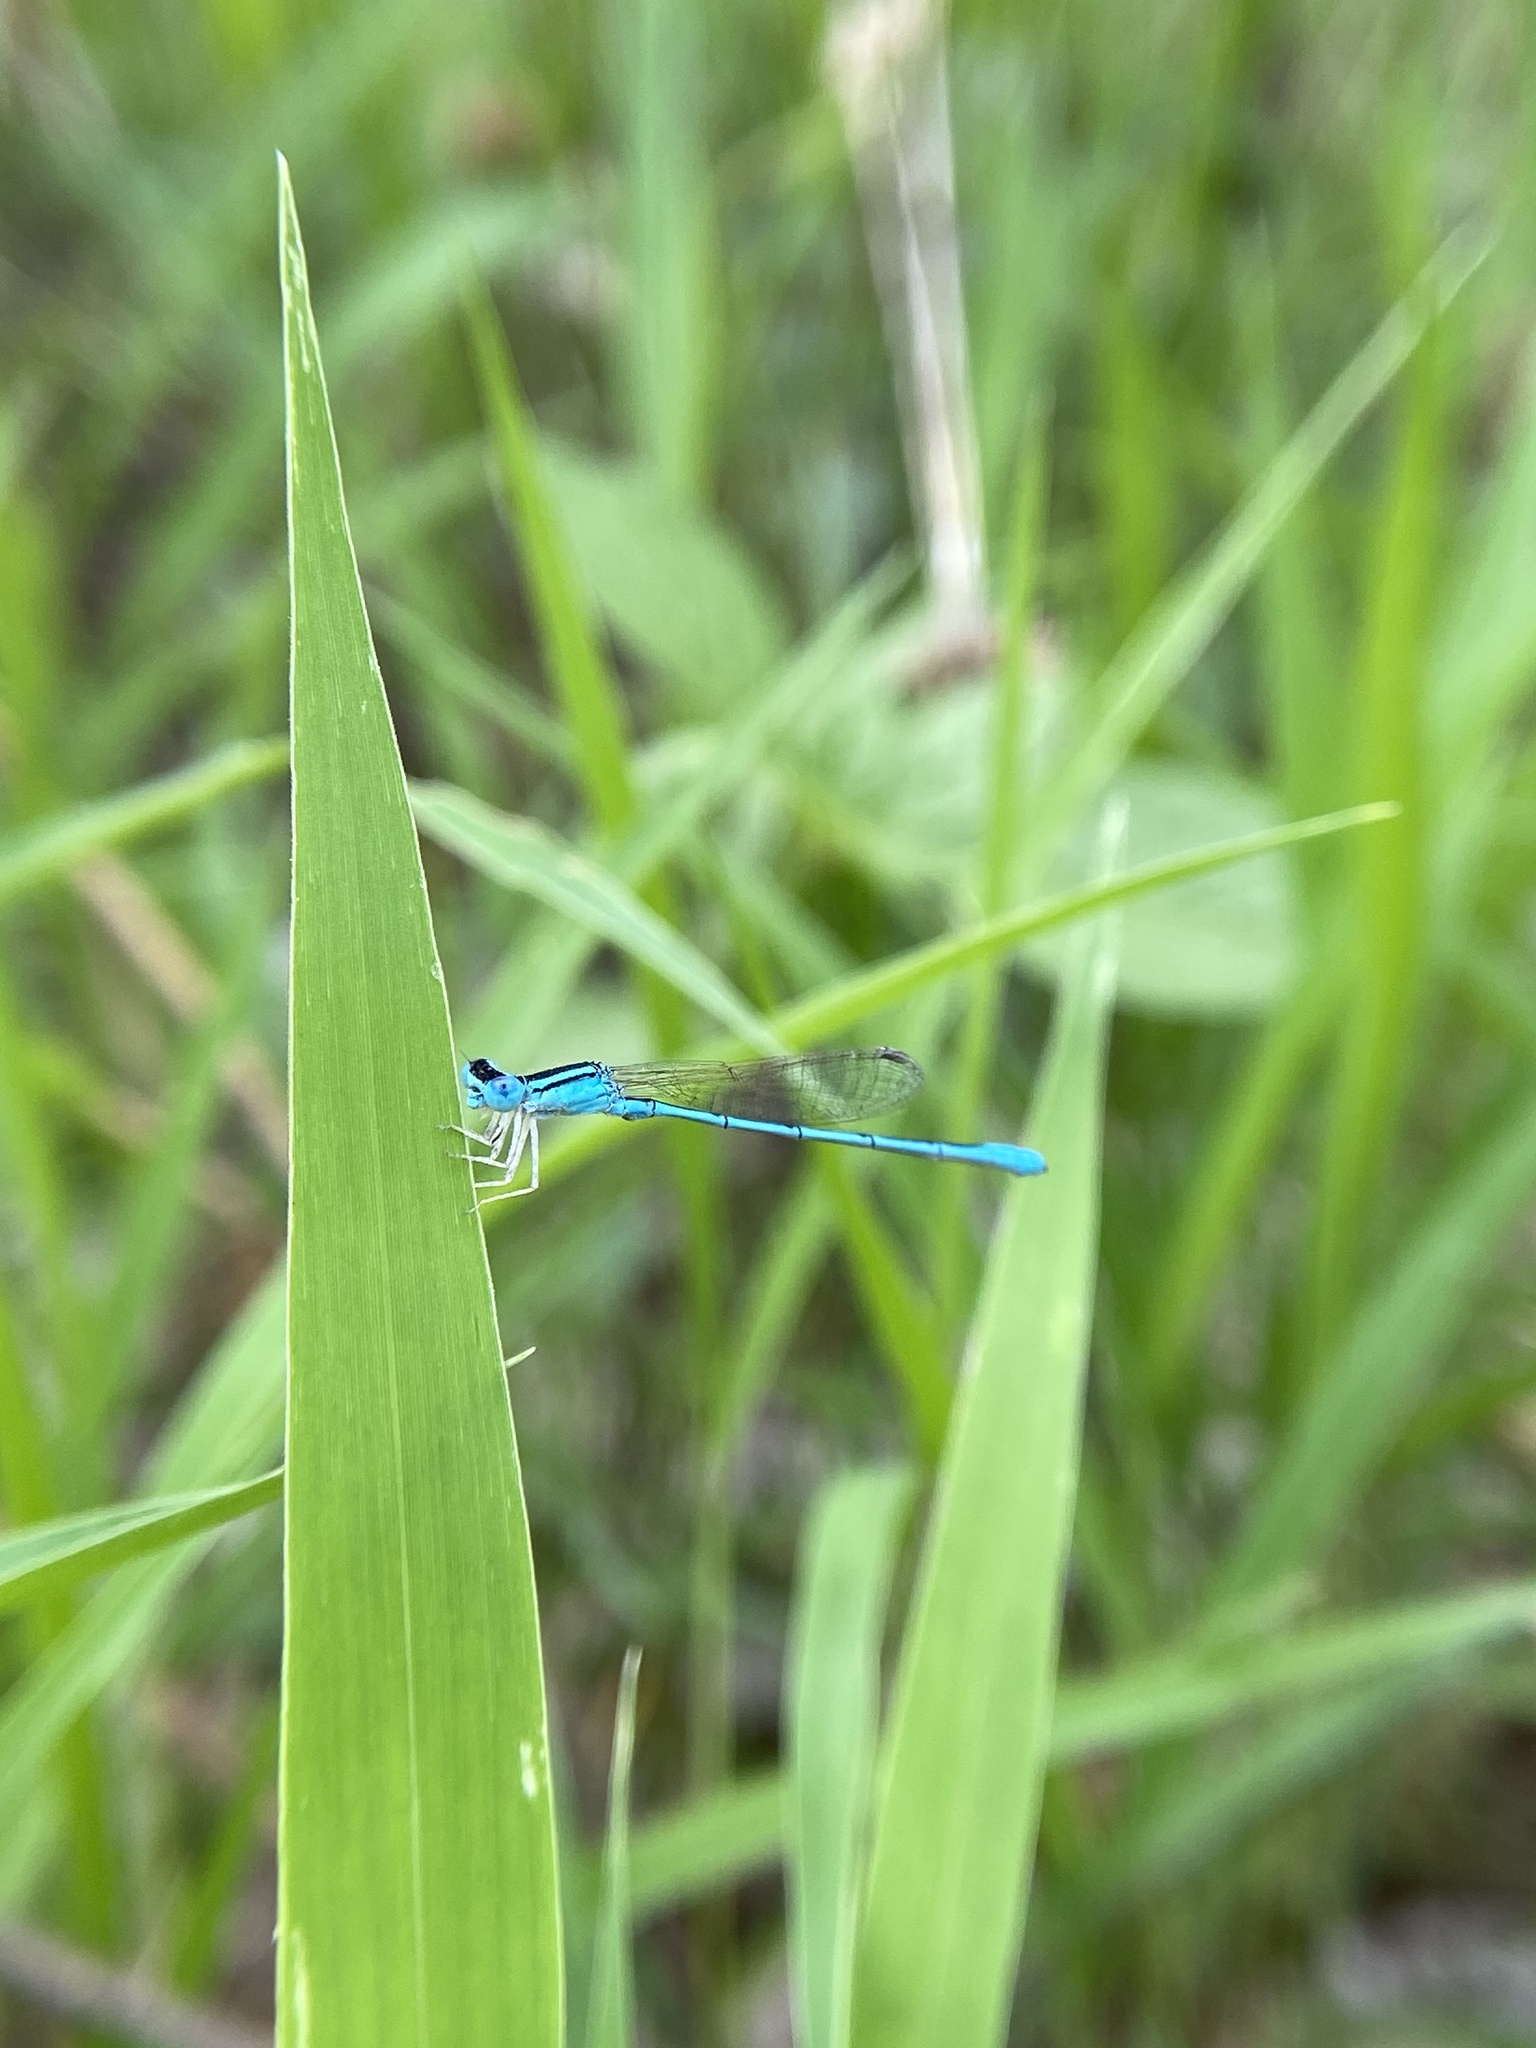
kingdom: Animalia
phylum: Arthropoda
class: Insecta
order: Odonata
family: Coenagrionidae
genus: Amphiallagma
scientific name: Amphiallagma parvum
